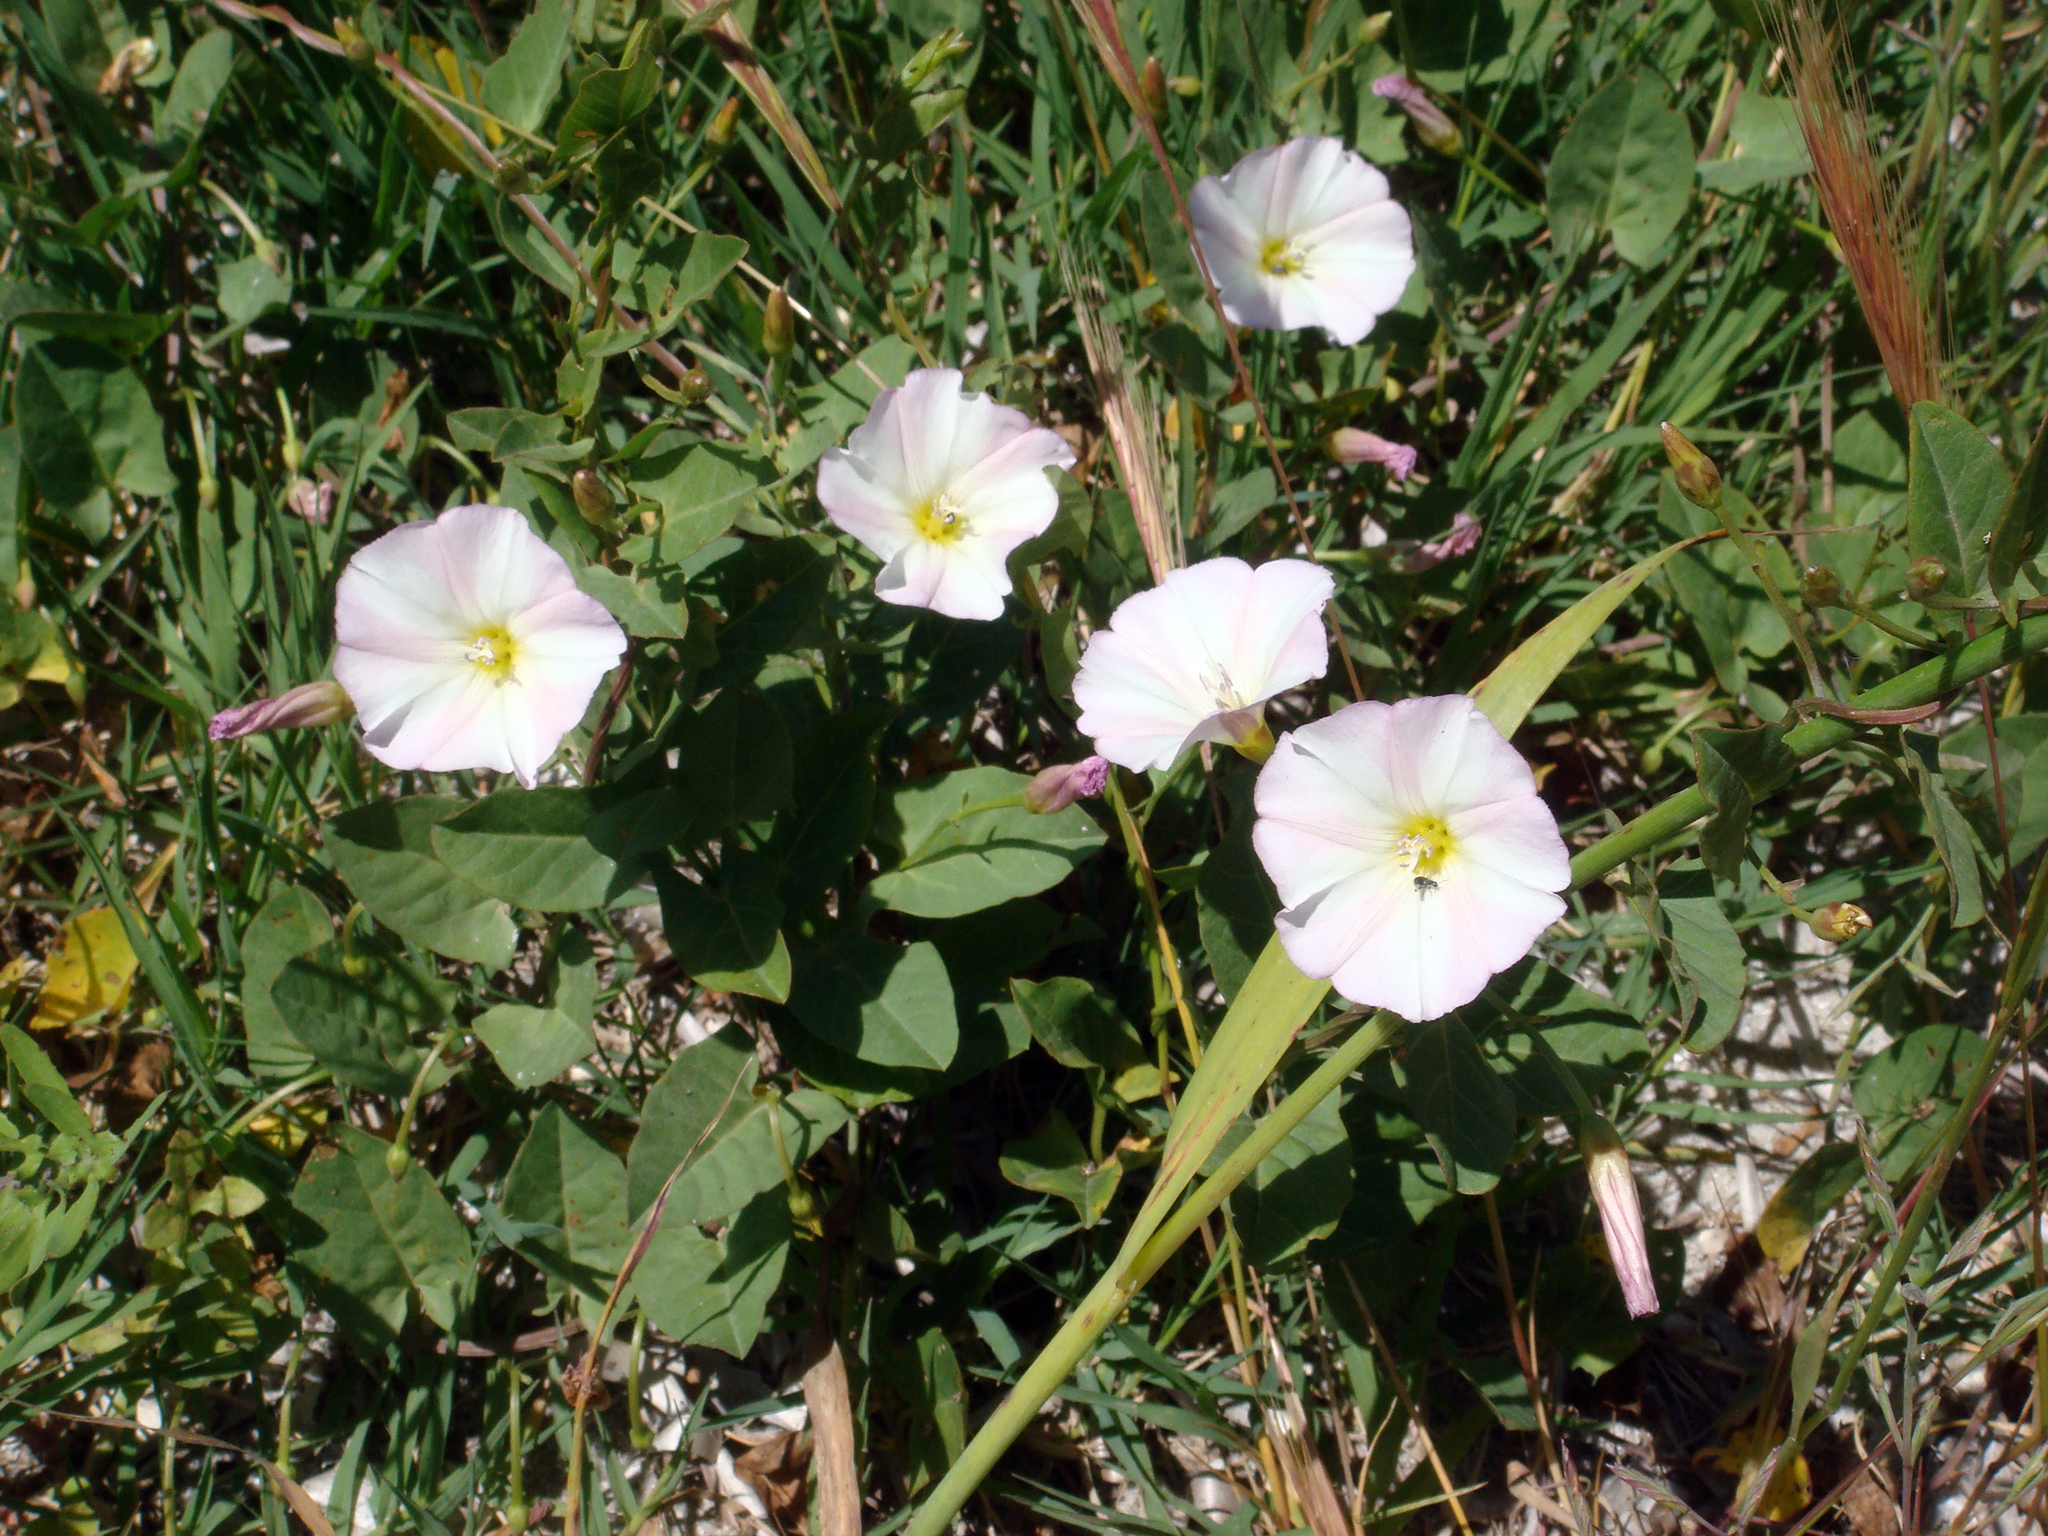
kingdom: Plantae
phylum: Tracheophyta
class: Magnoliopsida
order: Solanales
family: Convolvulaceae
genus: Convolvulus
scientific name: Convolvulus arvensis
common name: Field bindweed
